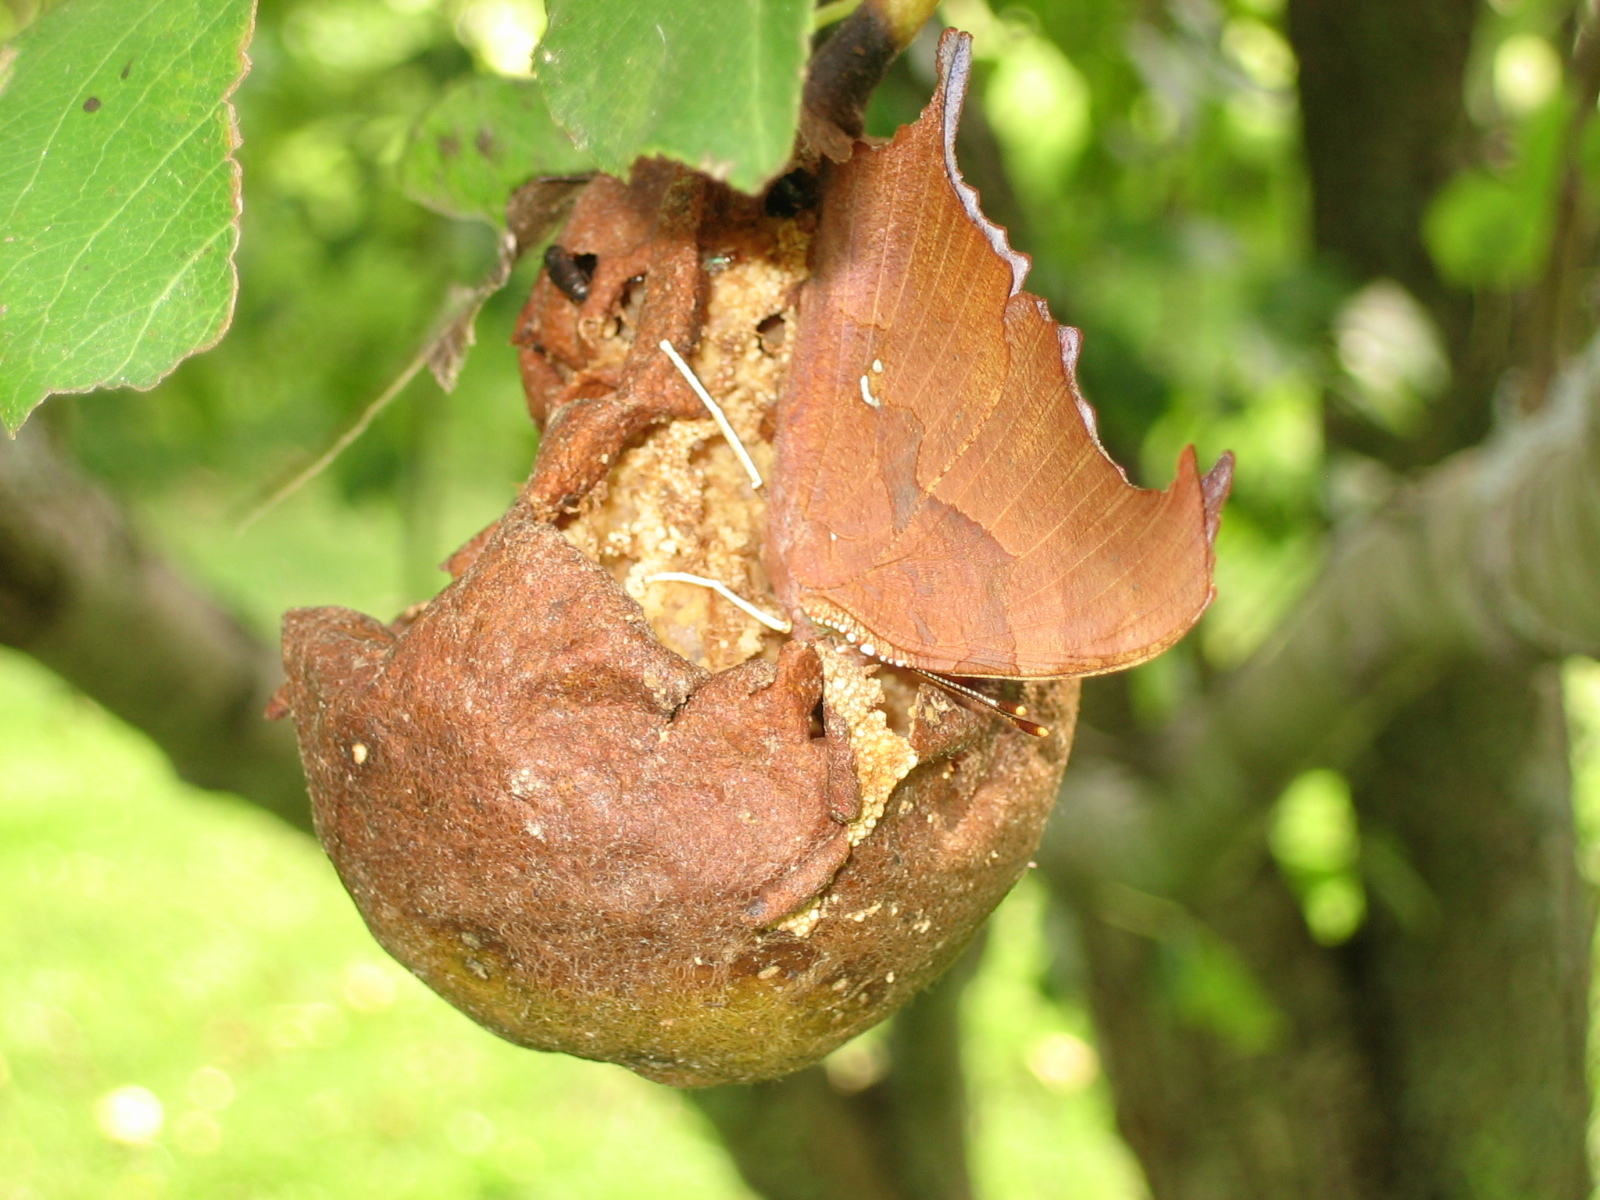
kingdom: Animalia
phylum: Arthropoda
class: Insecta
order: Lepidoptera
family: Nymphalidae
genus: Polygonia
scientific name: Polygonia interrogationis
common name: Question mark
